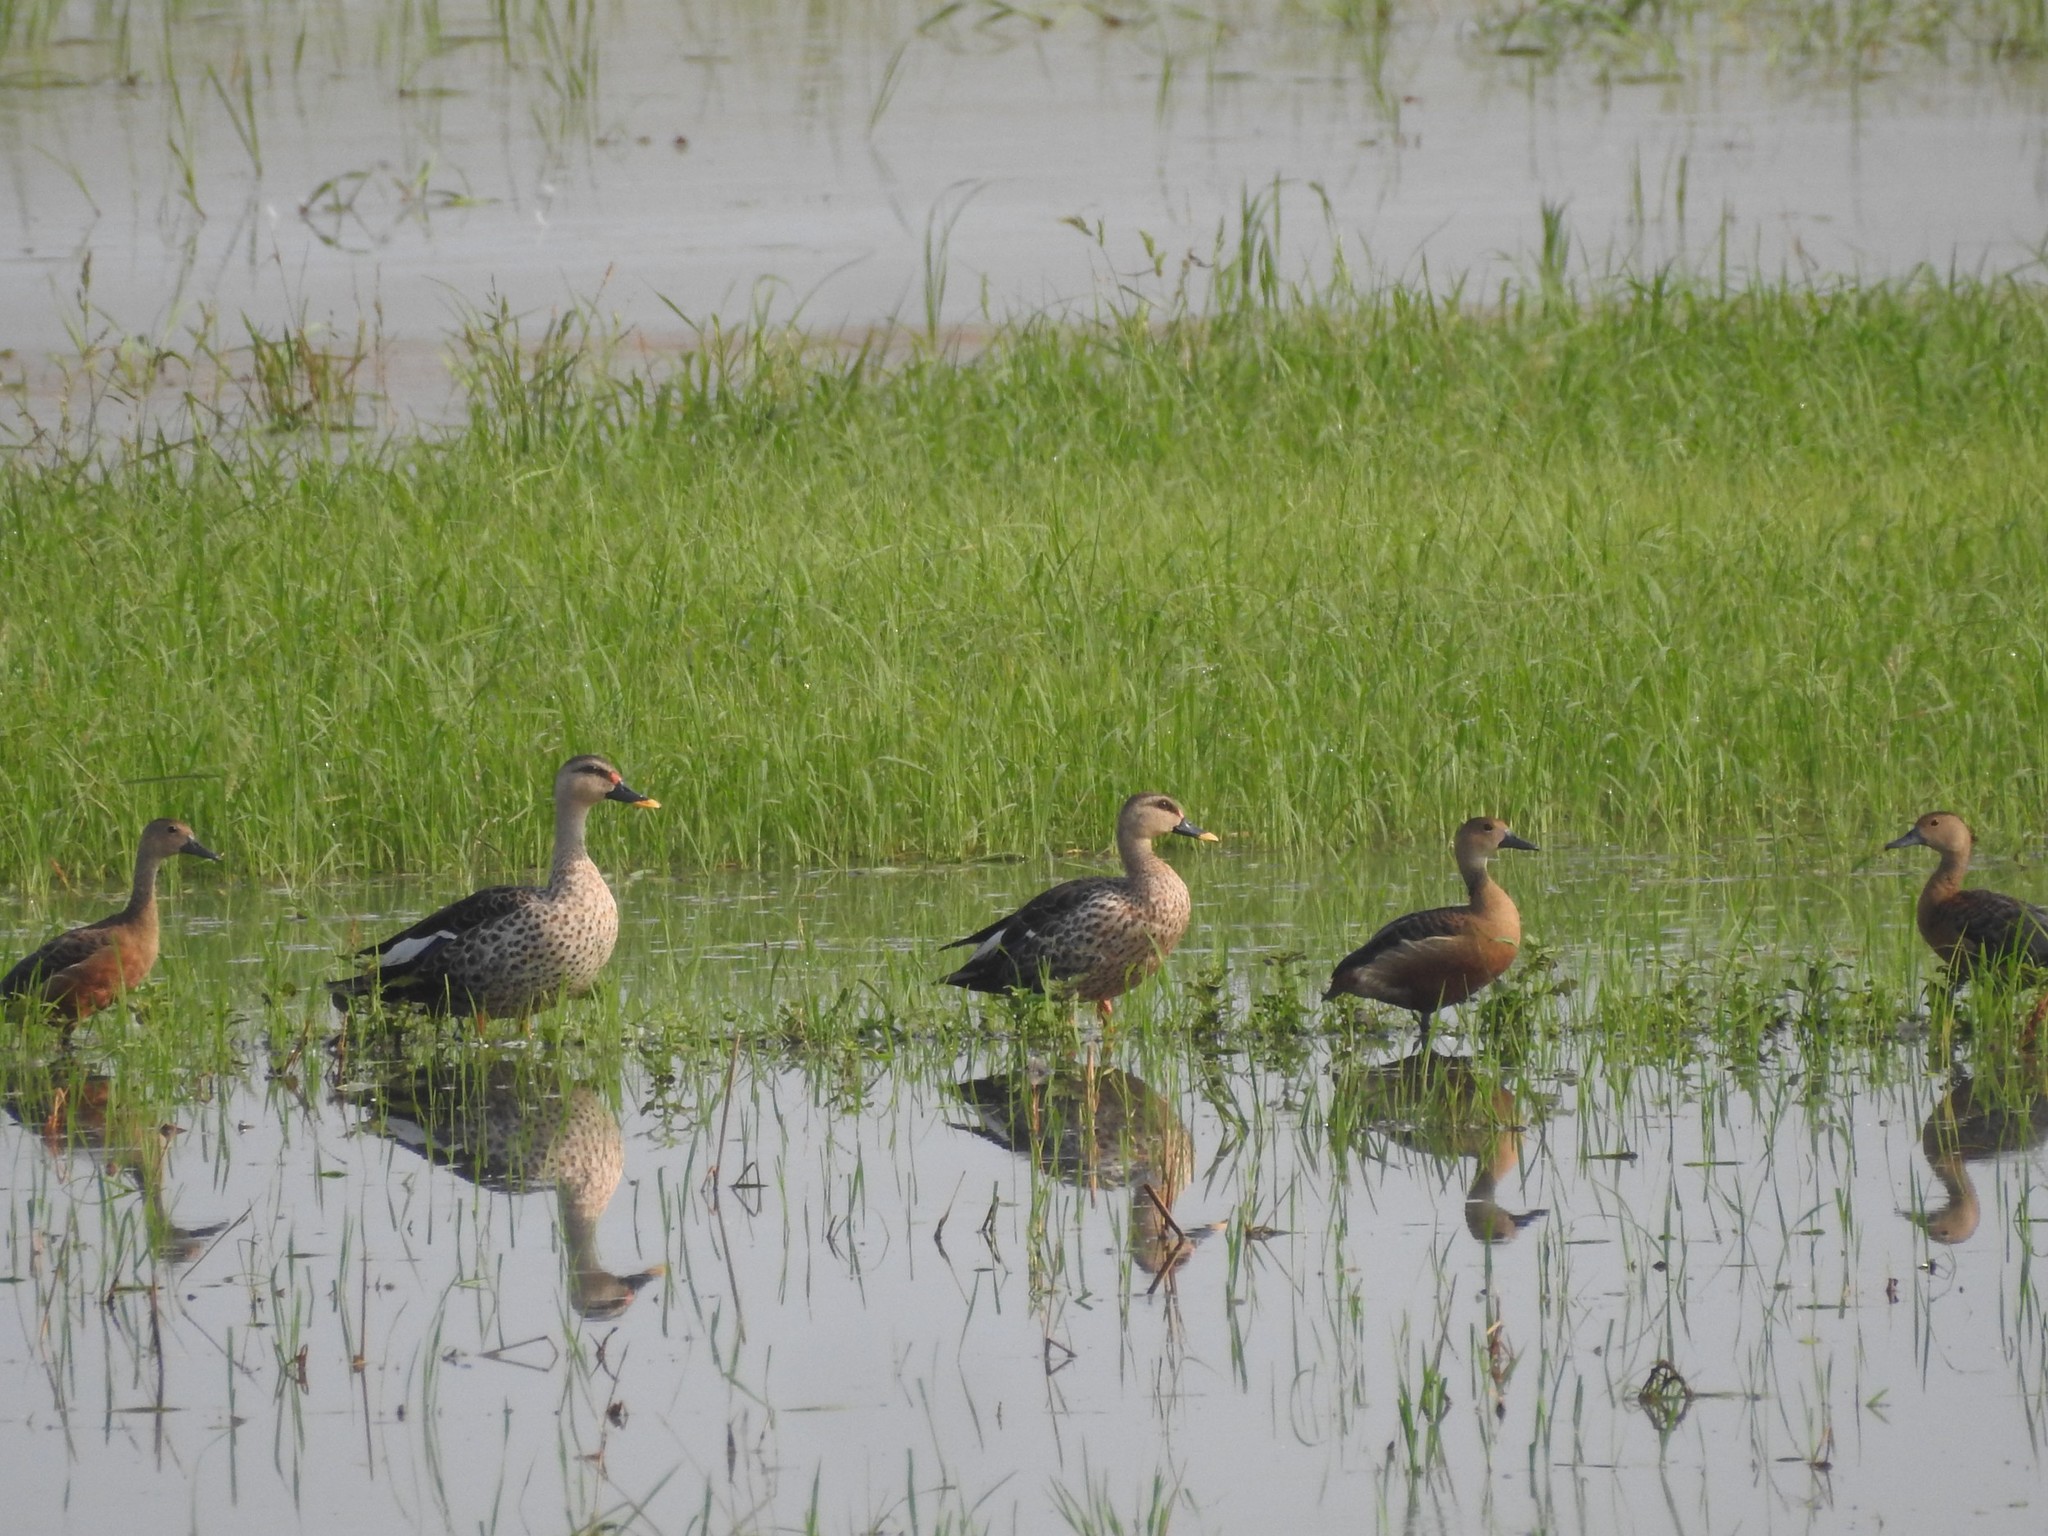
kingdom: Animalia
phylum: Chordata
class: Aves
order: Anseriformes
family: Anatidae
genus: Anas
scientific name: Anas poecilorhyncha
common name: Indian spot-billed duck
